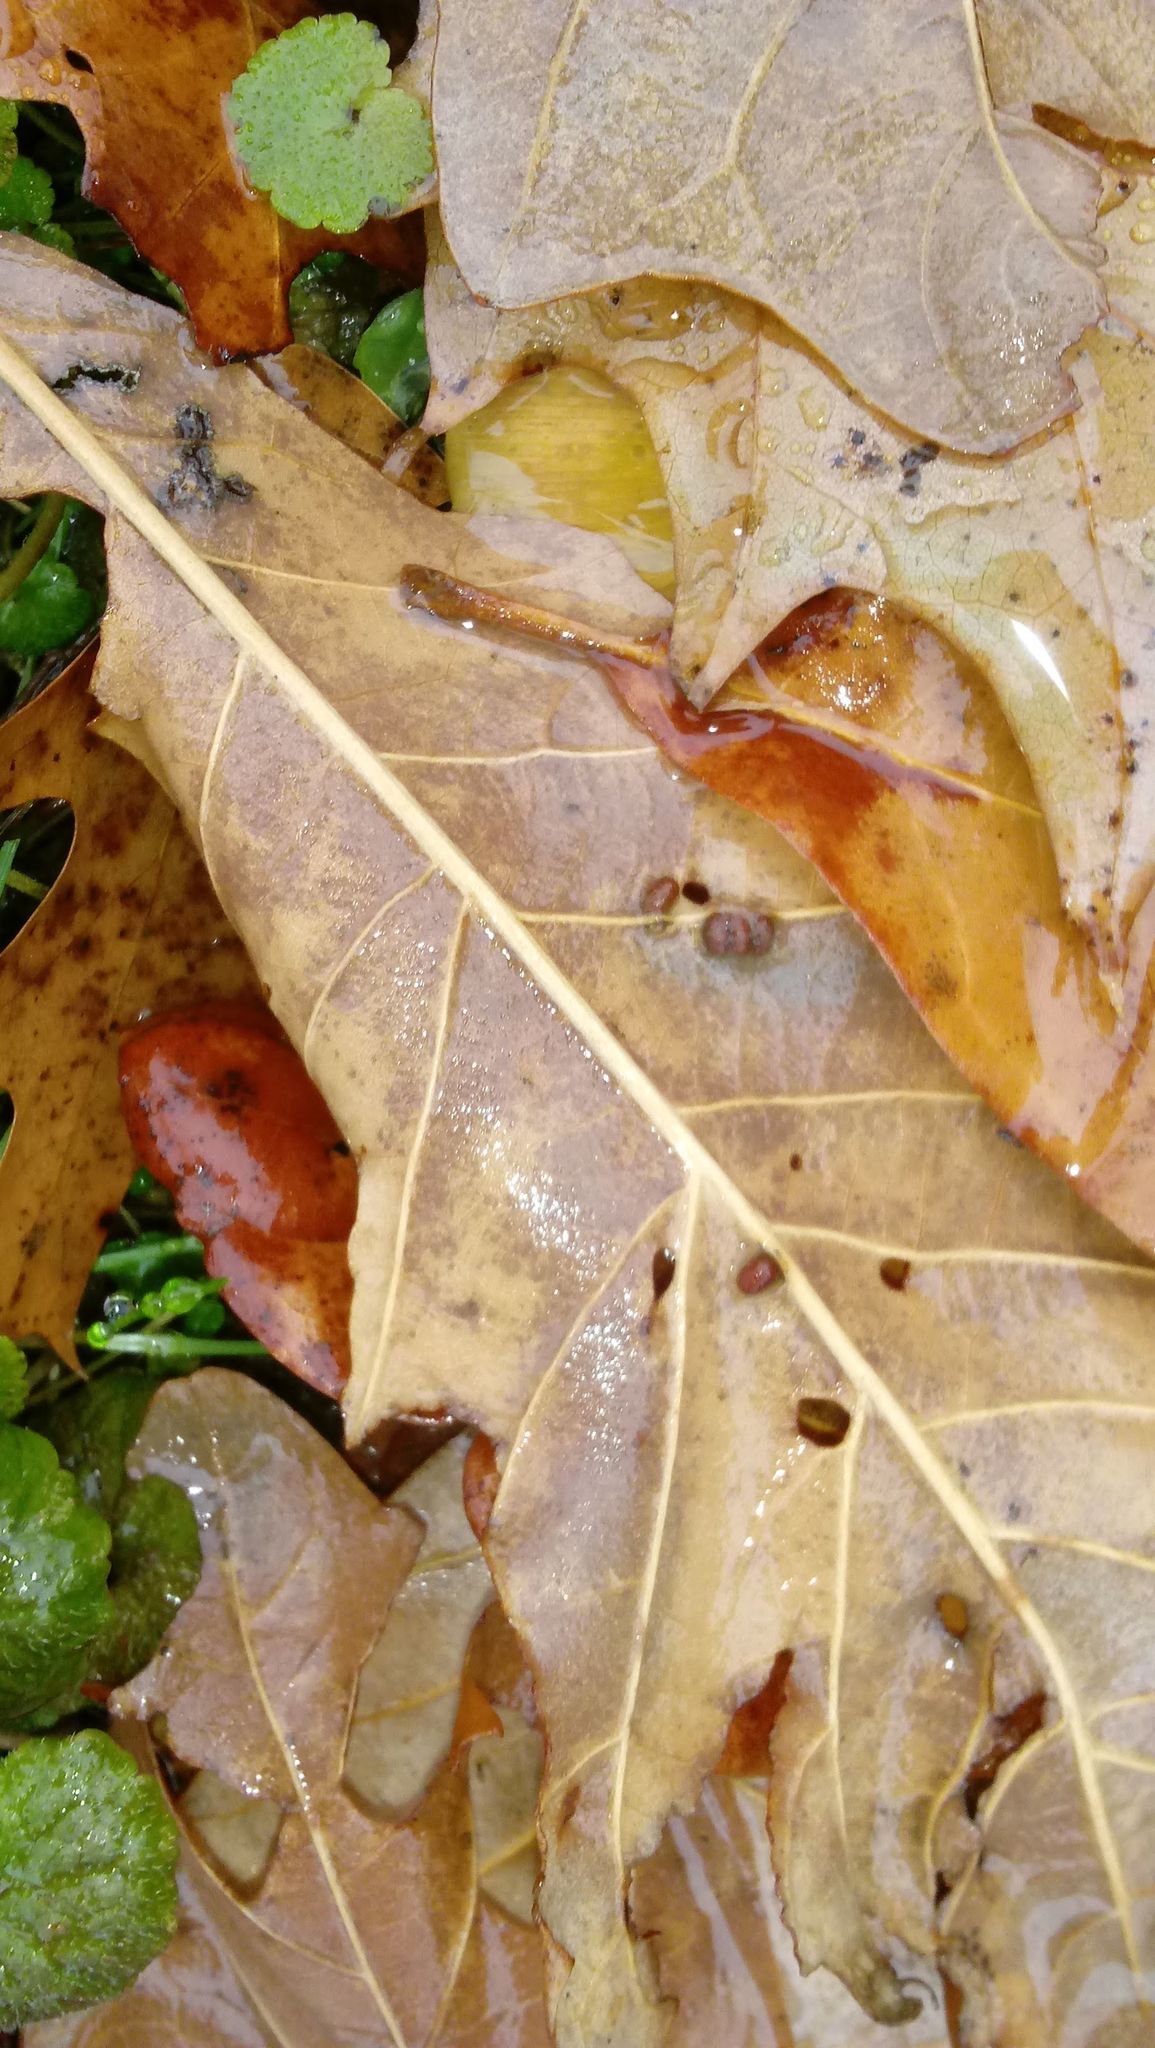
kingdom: Animalia
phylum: Arthropoda
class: Insecta
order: Hymenoptera
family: Cynipidae
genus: Andricus
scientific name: Andricus Druon ignotum
